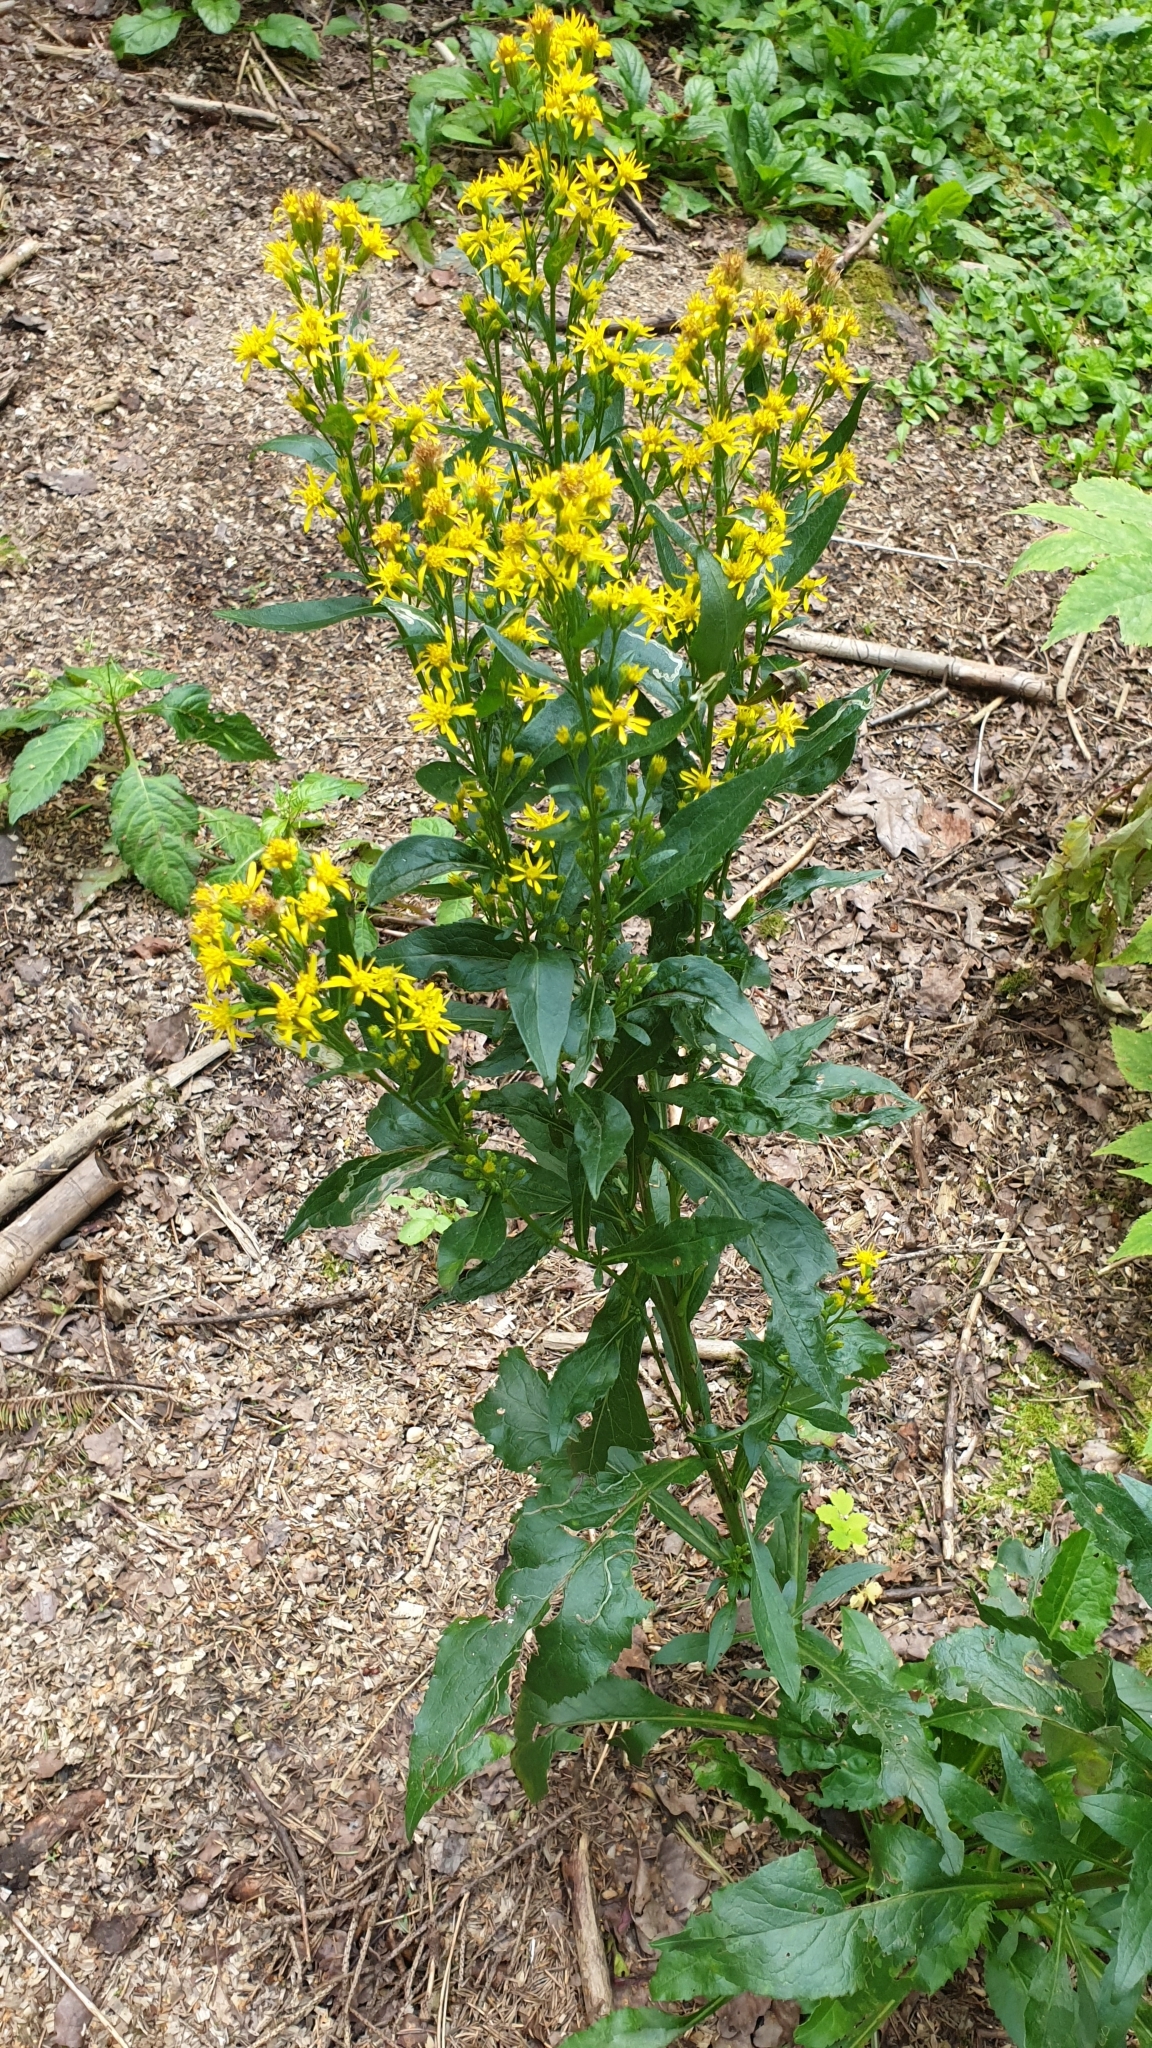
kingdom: Plantae
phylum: Tracheophyta
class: Magnoliopsida
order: Asterales
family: Asteraceae
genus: Solidago
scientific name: Solidago virgaurea
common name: Goldenrod
